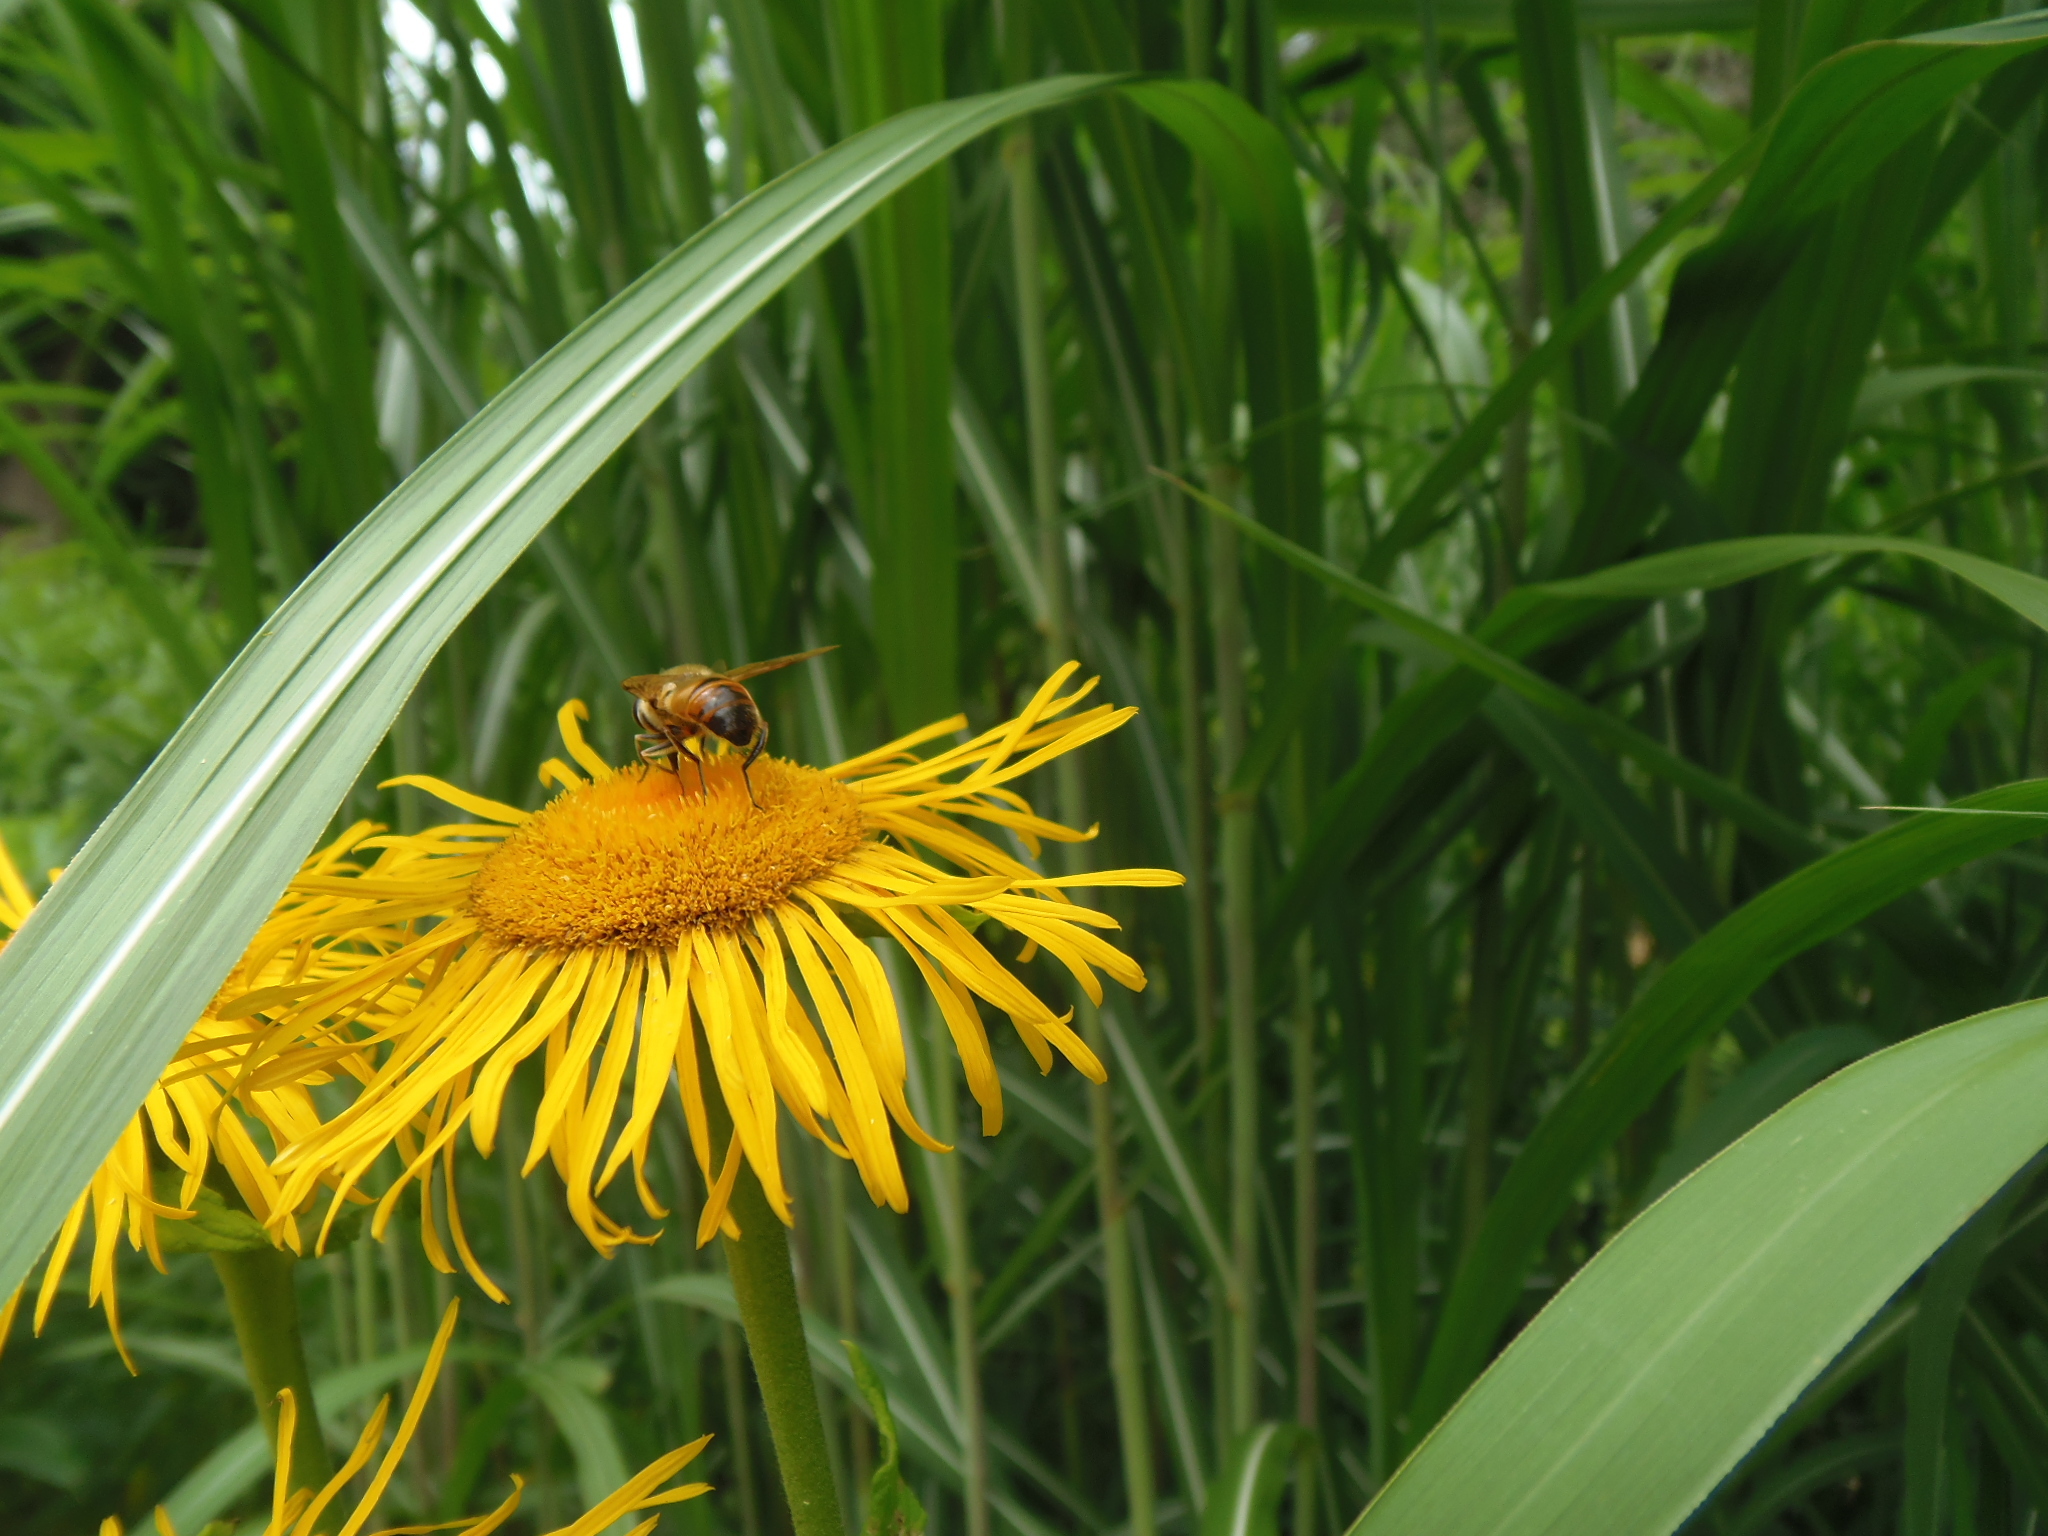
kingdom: Animalia
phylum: Arthropoda
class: Insecta
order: Diptera
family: Syrphidae
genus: Eristalis
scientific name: Eristalis tenax
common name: Drone fly
